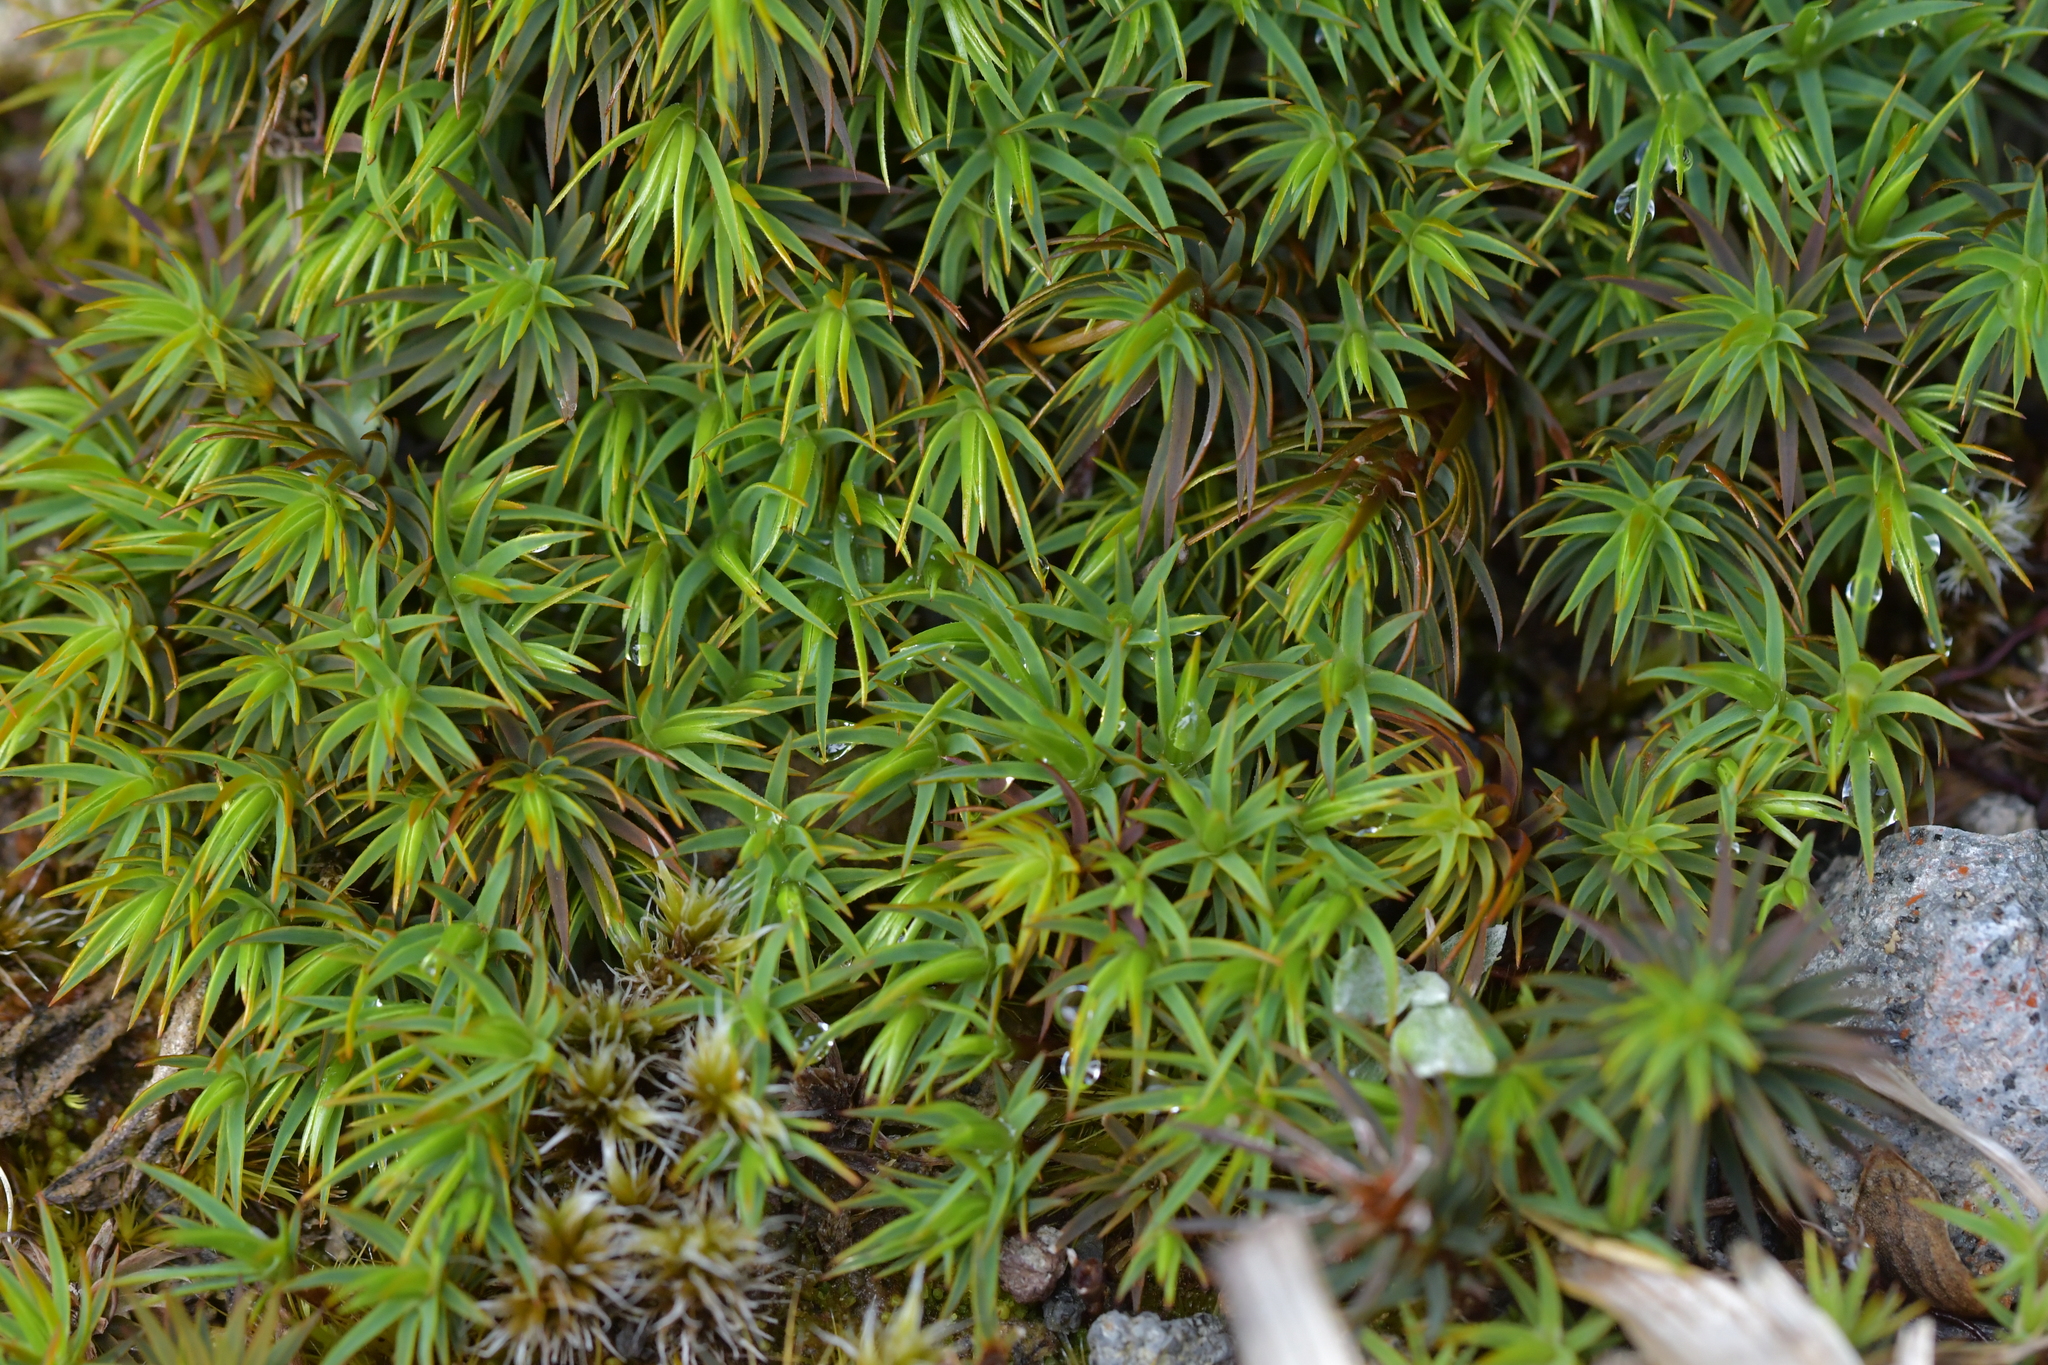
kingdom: Plantae
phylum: Bryophyta
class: Polytrichopsida
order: Polytrichales
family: Polytrichaceae
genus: Polytrichadelphus
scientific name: Polytrichadelphus magellanicus
